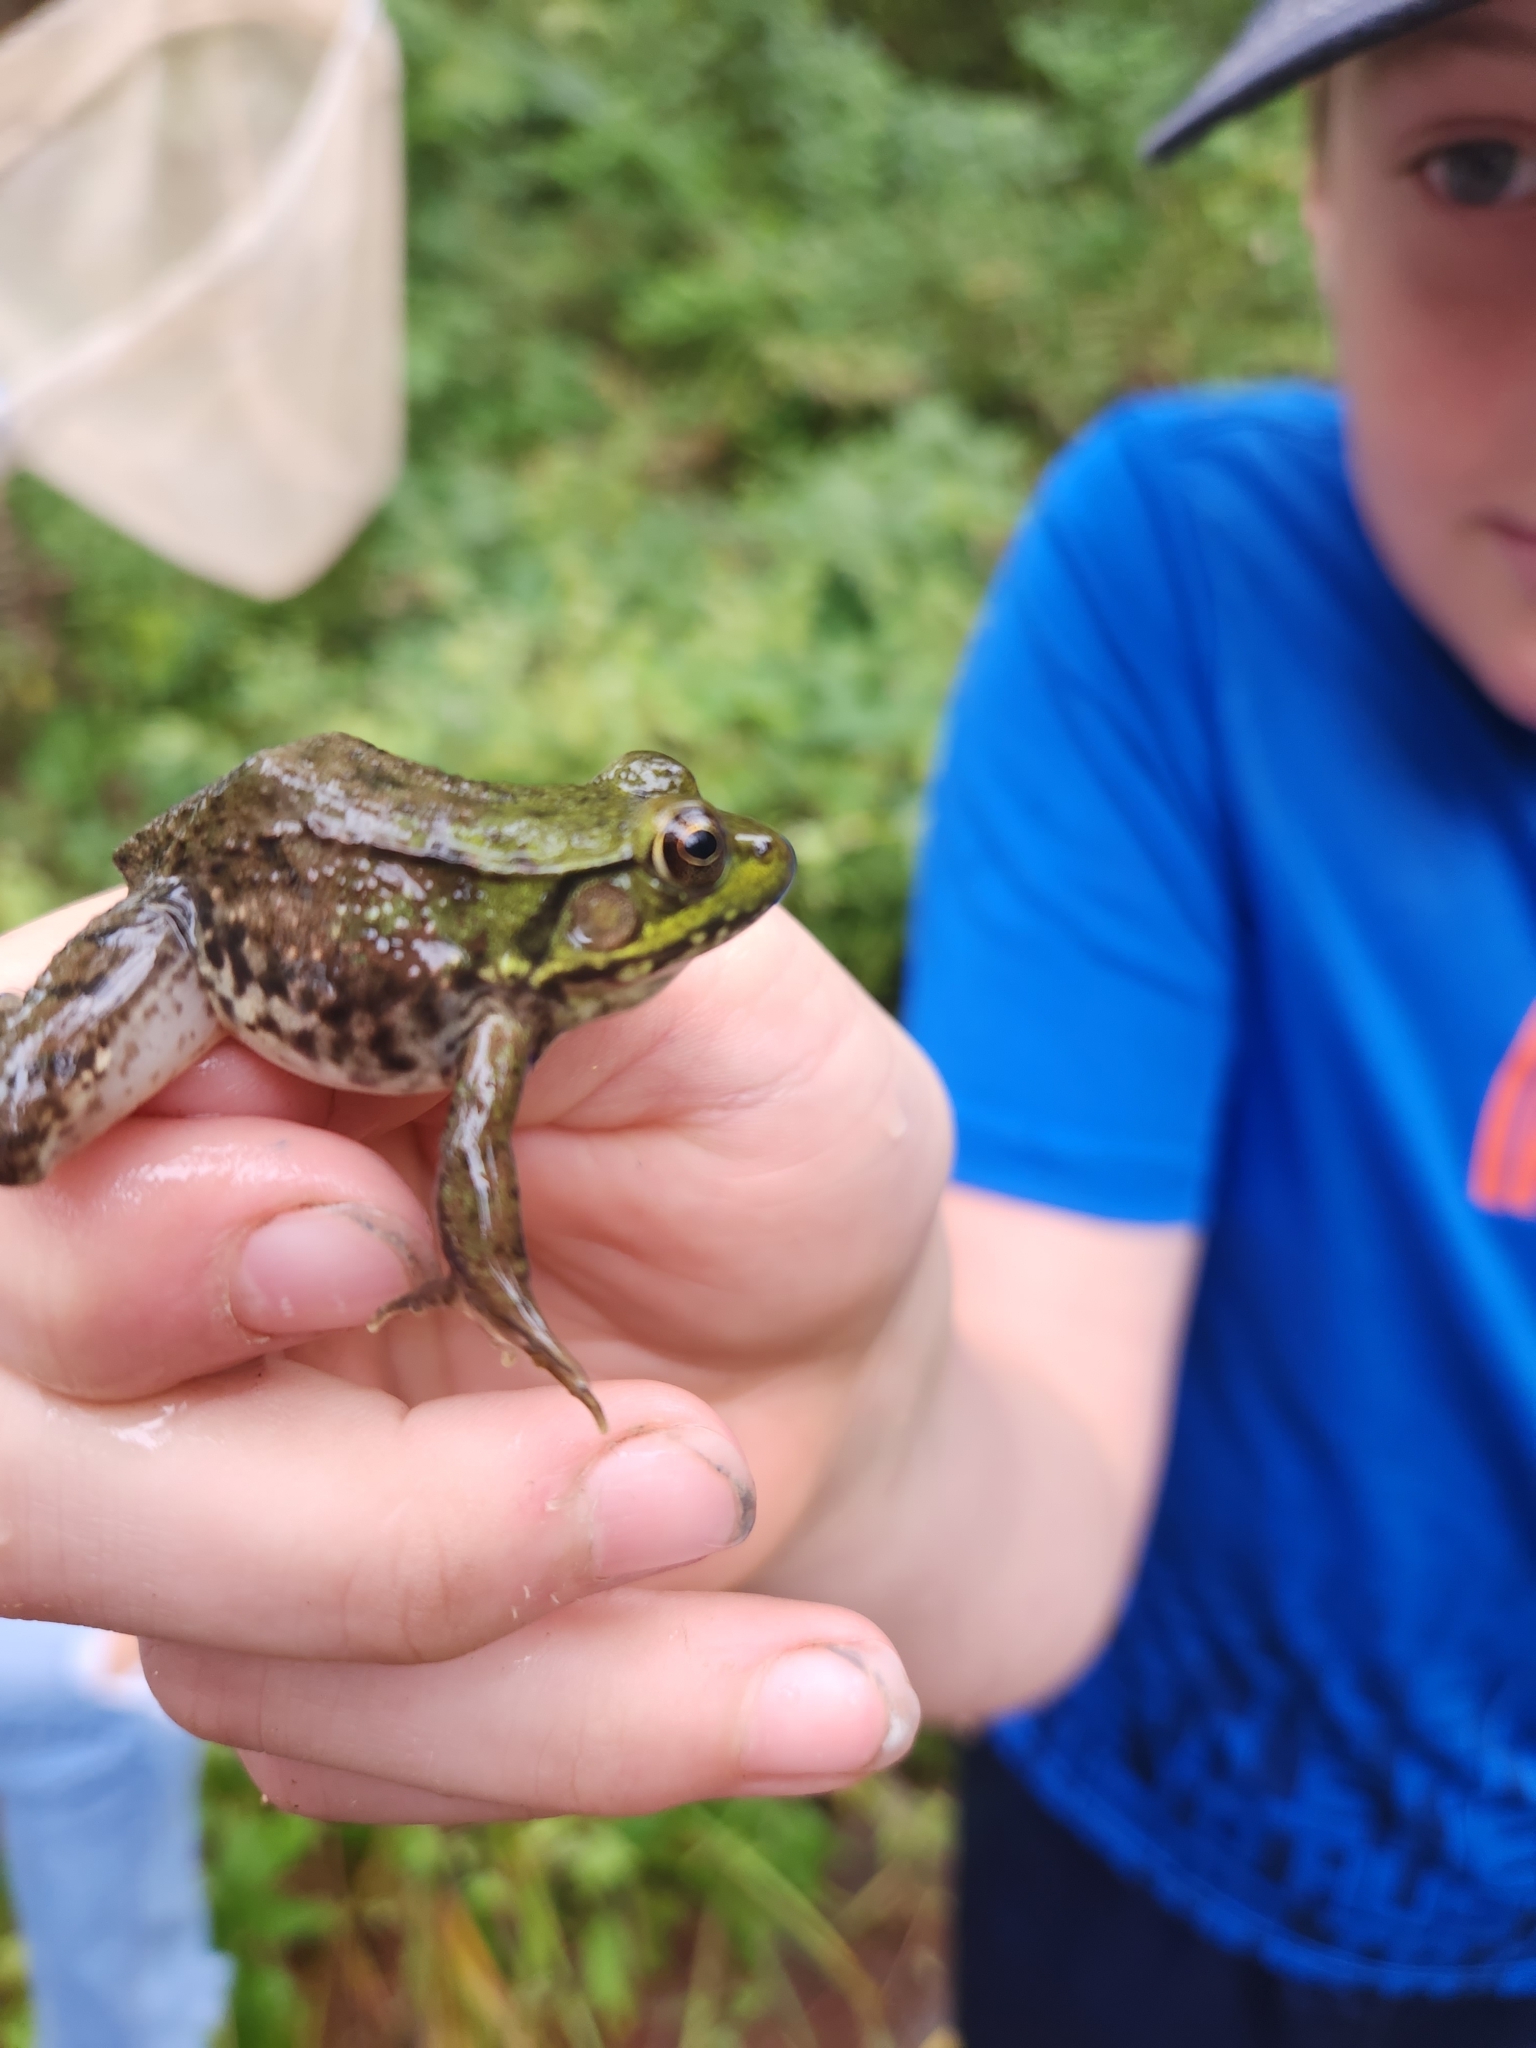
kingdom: Animalia
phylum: Chordata
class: Amphibia
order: Anura
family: Ranidae
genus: Lithobates
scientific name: Lithobates clamitans
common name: Green frog
